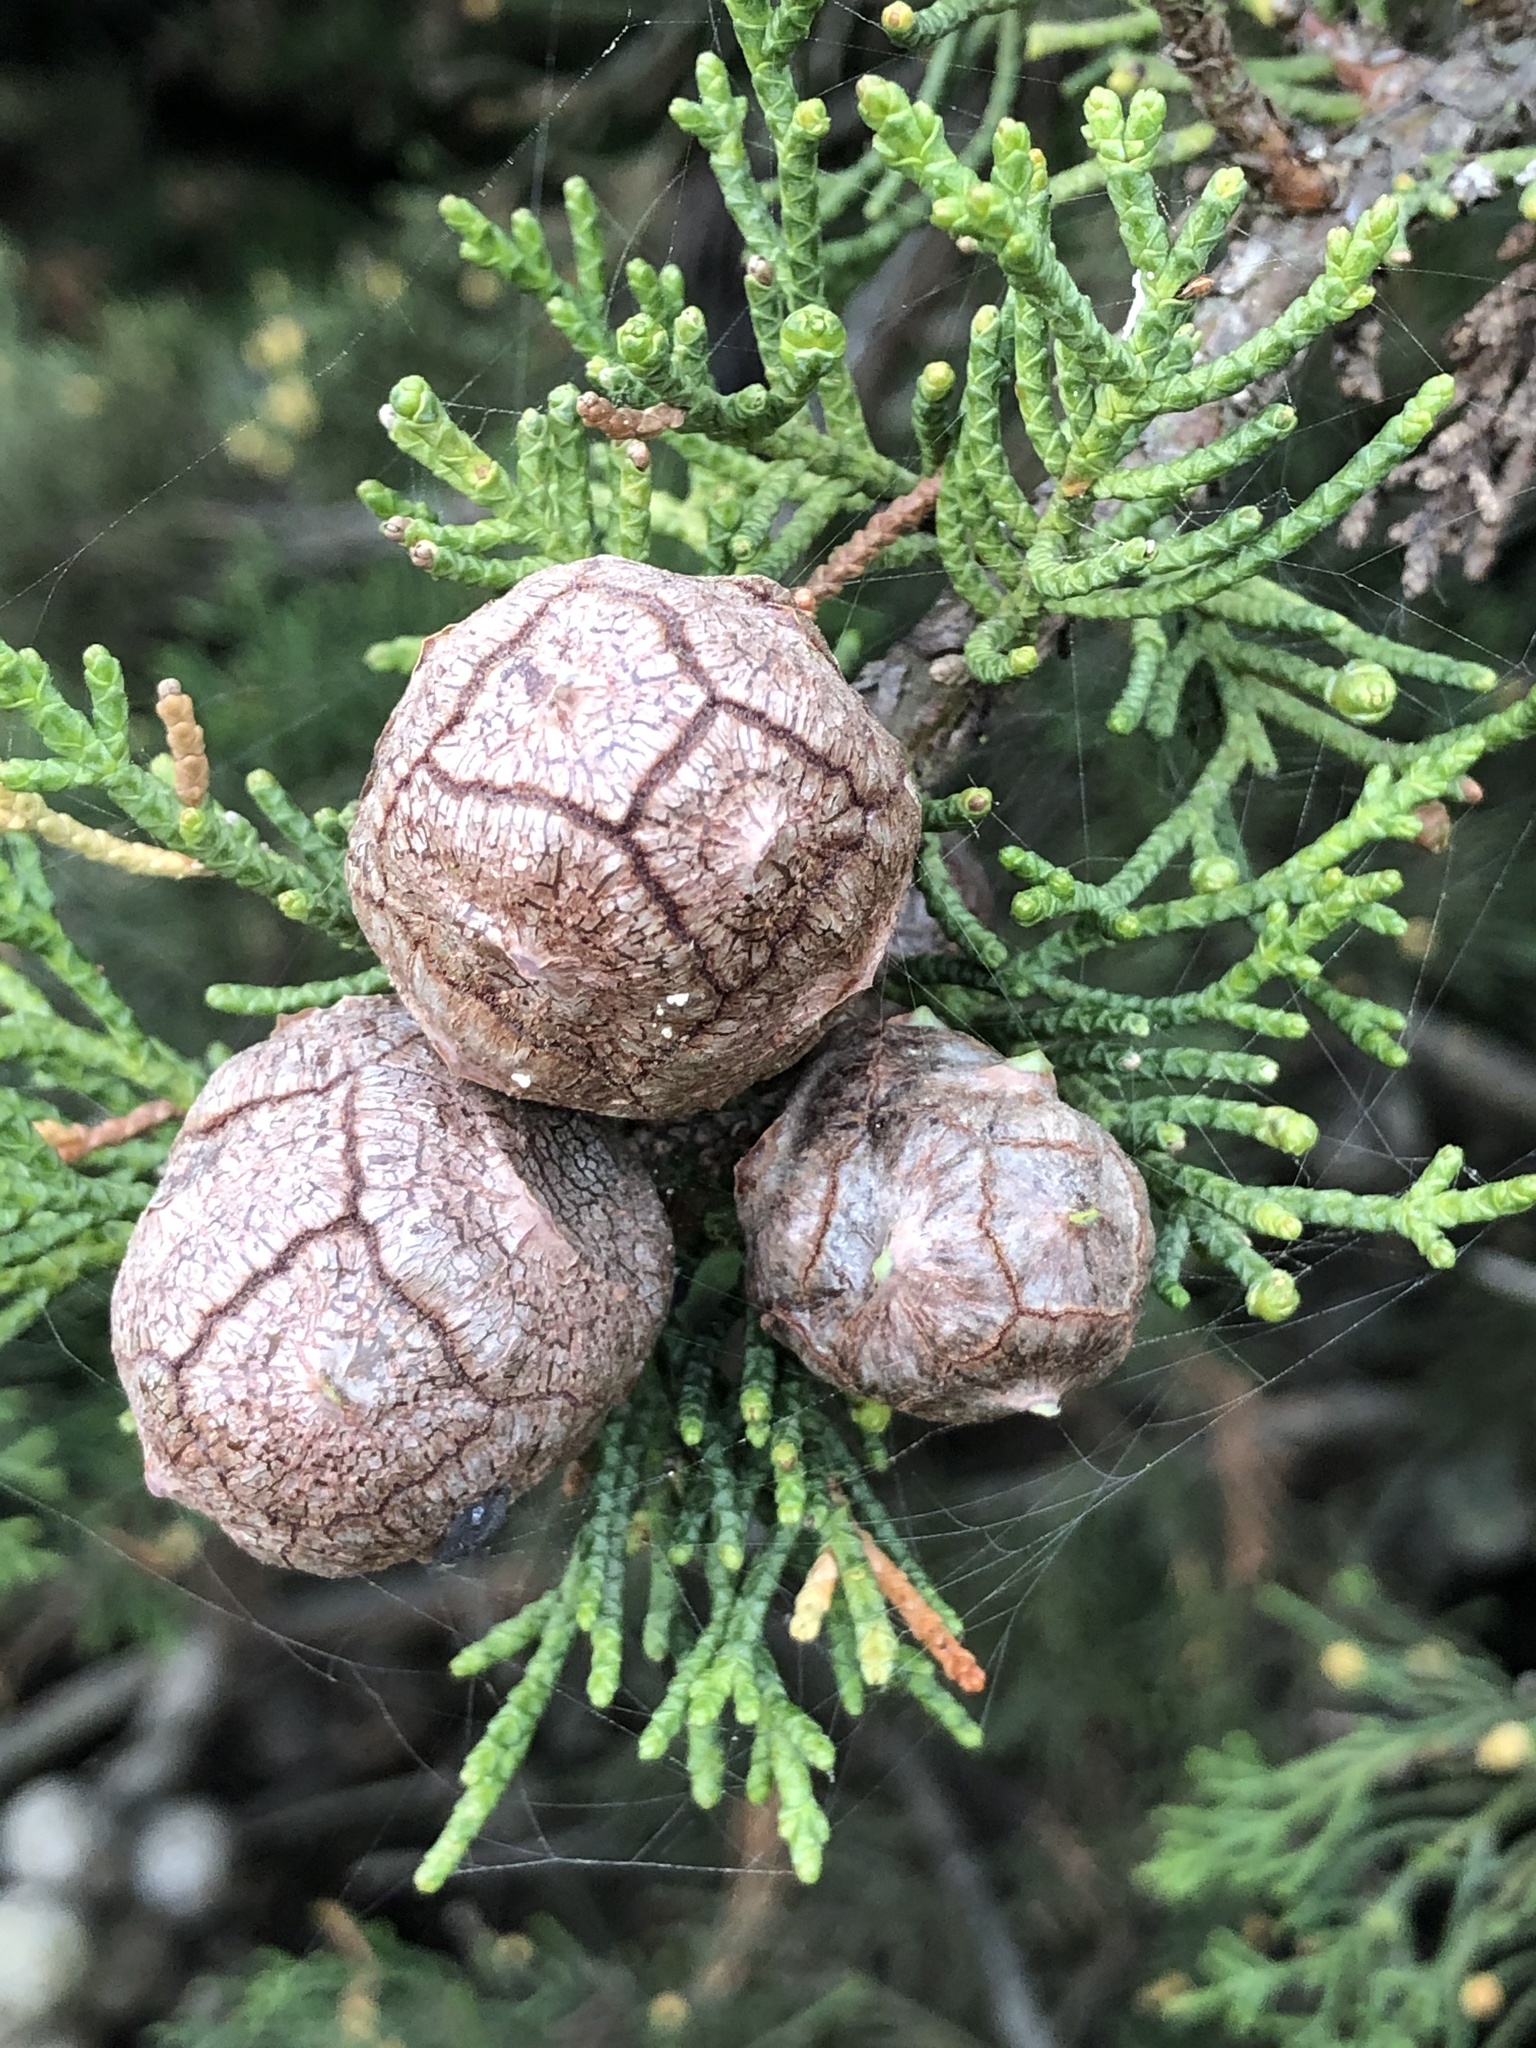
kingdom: Plantae
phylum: Tracheophyta
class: Pinopsida
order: Pinales
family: Cupressaceae
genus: Cupressus
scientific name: Cupressus macrocarpa
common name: Monterey cypress
